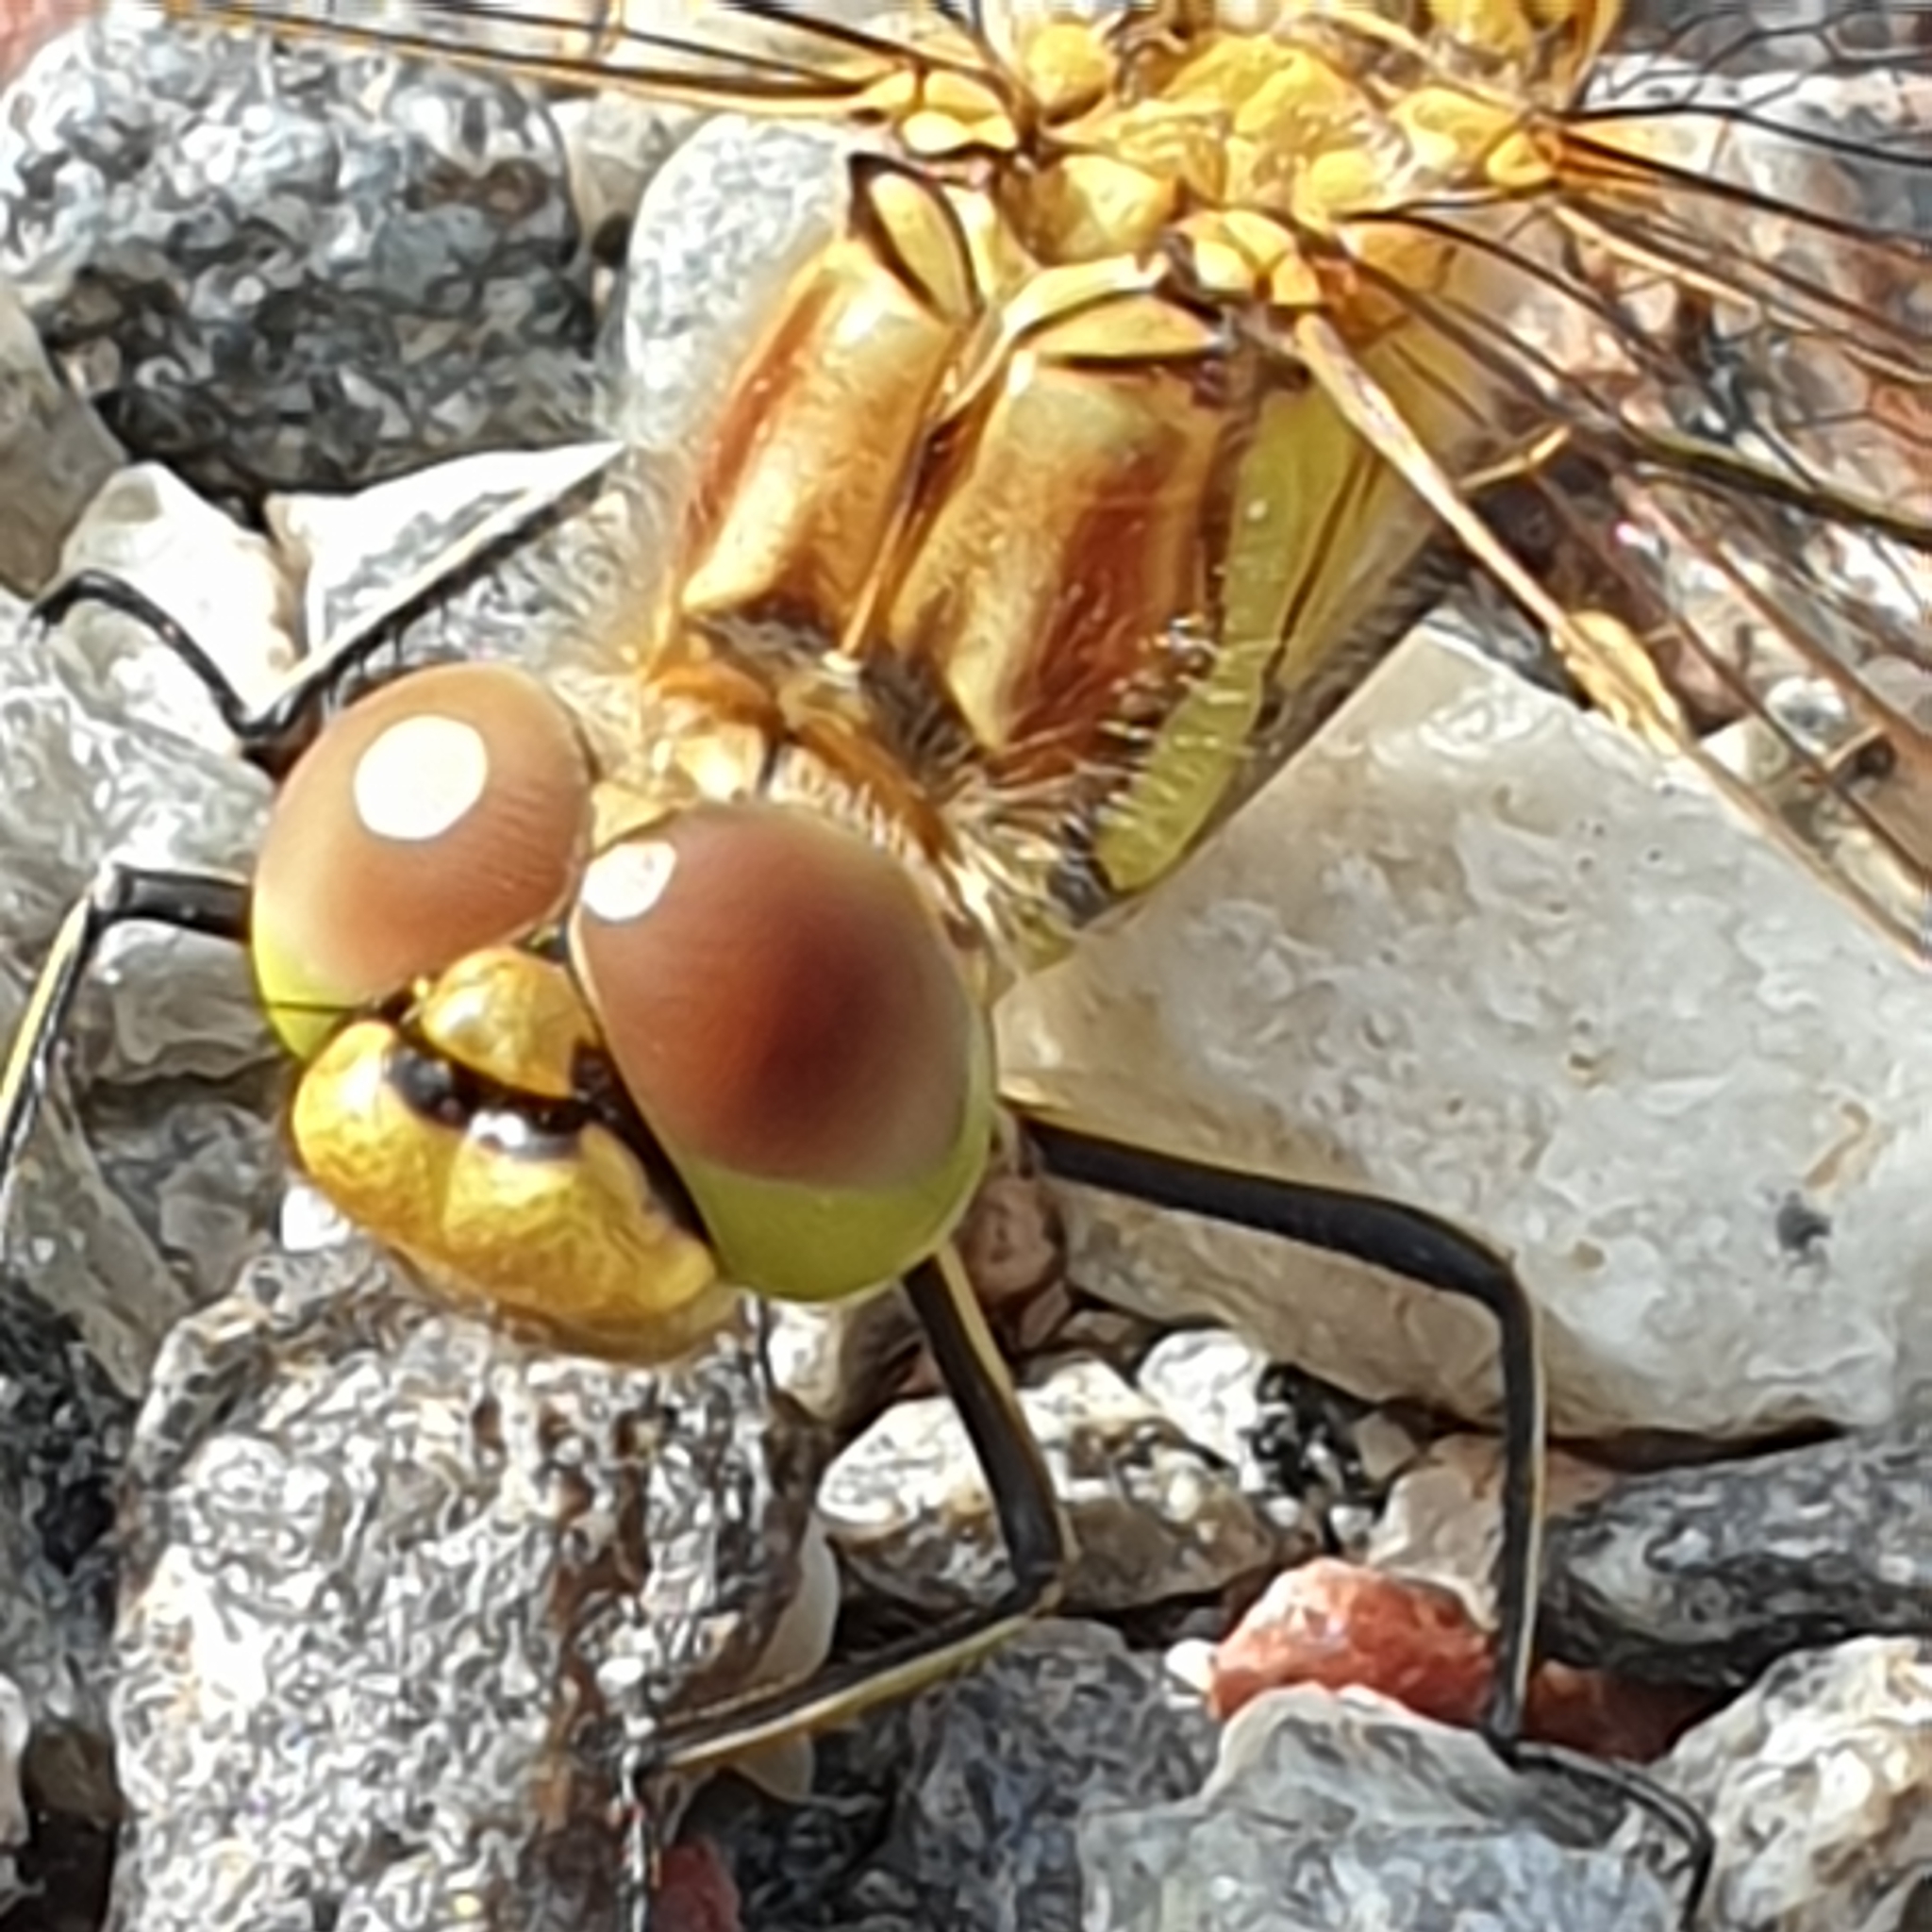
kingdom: Animalia
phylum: Arthropoda
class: Insecta
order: Odonata
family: Libellulidae
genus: Sympetrum
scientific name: Sympetrum vulgatum
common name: Vagrant darter
